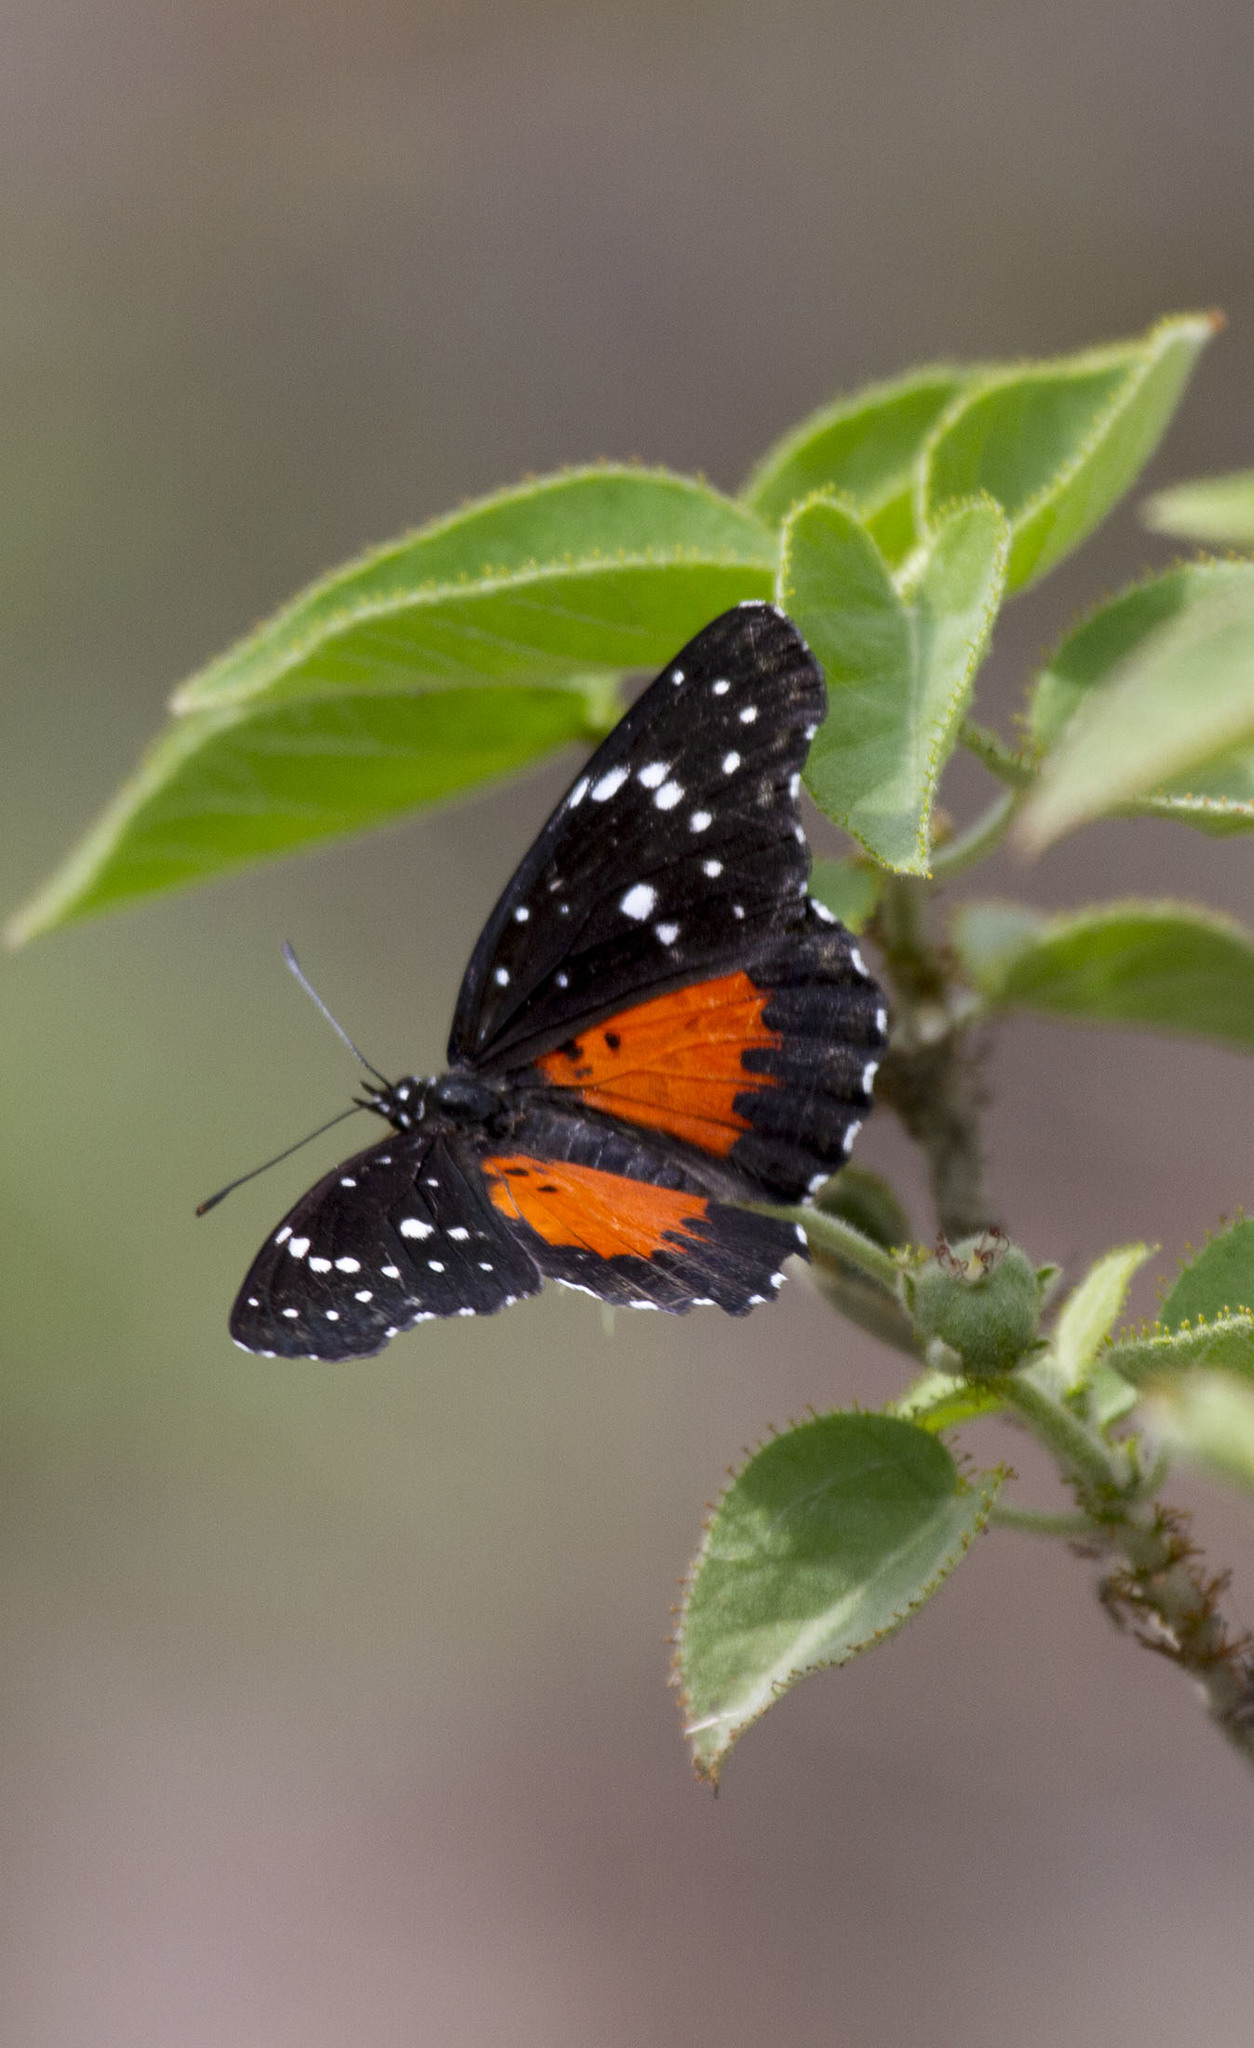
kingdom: Animalia
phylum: Arthropoda
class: Insecta
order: Lepidoptera
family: Nymphalidae
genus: Chlosyne
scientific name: Chlosyne janais
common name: Crimson patch
